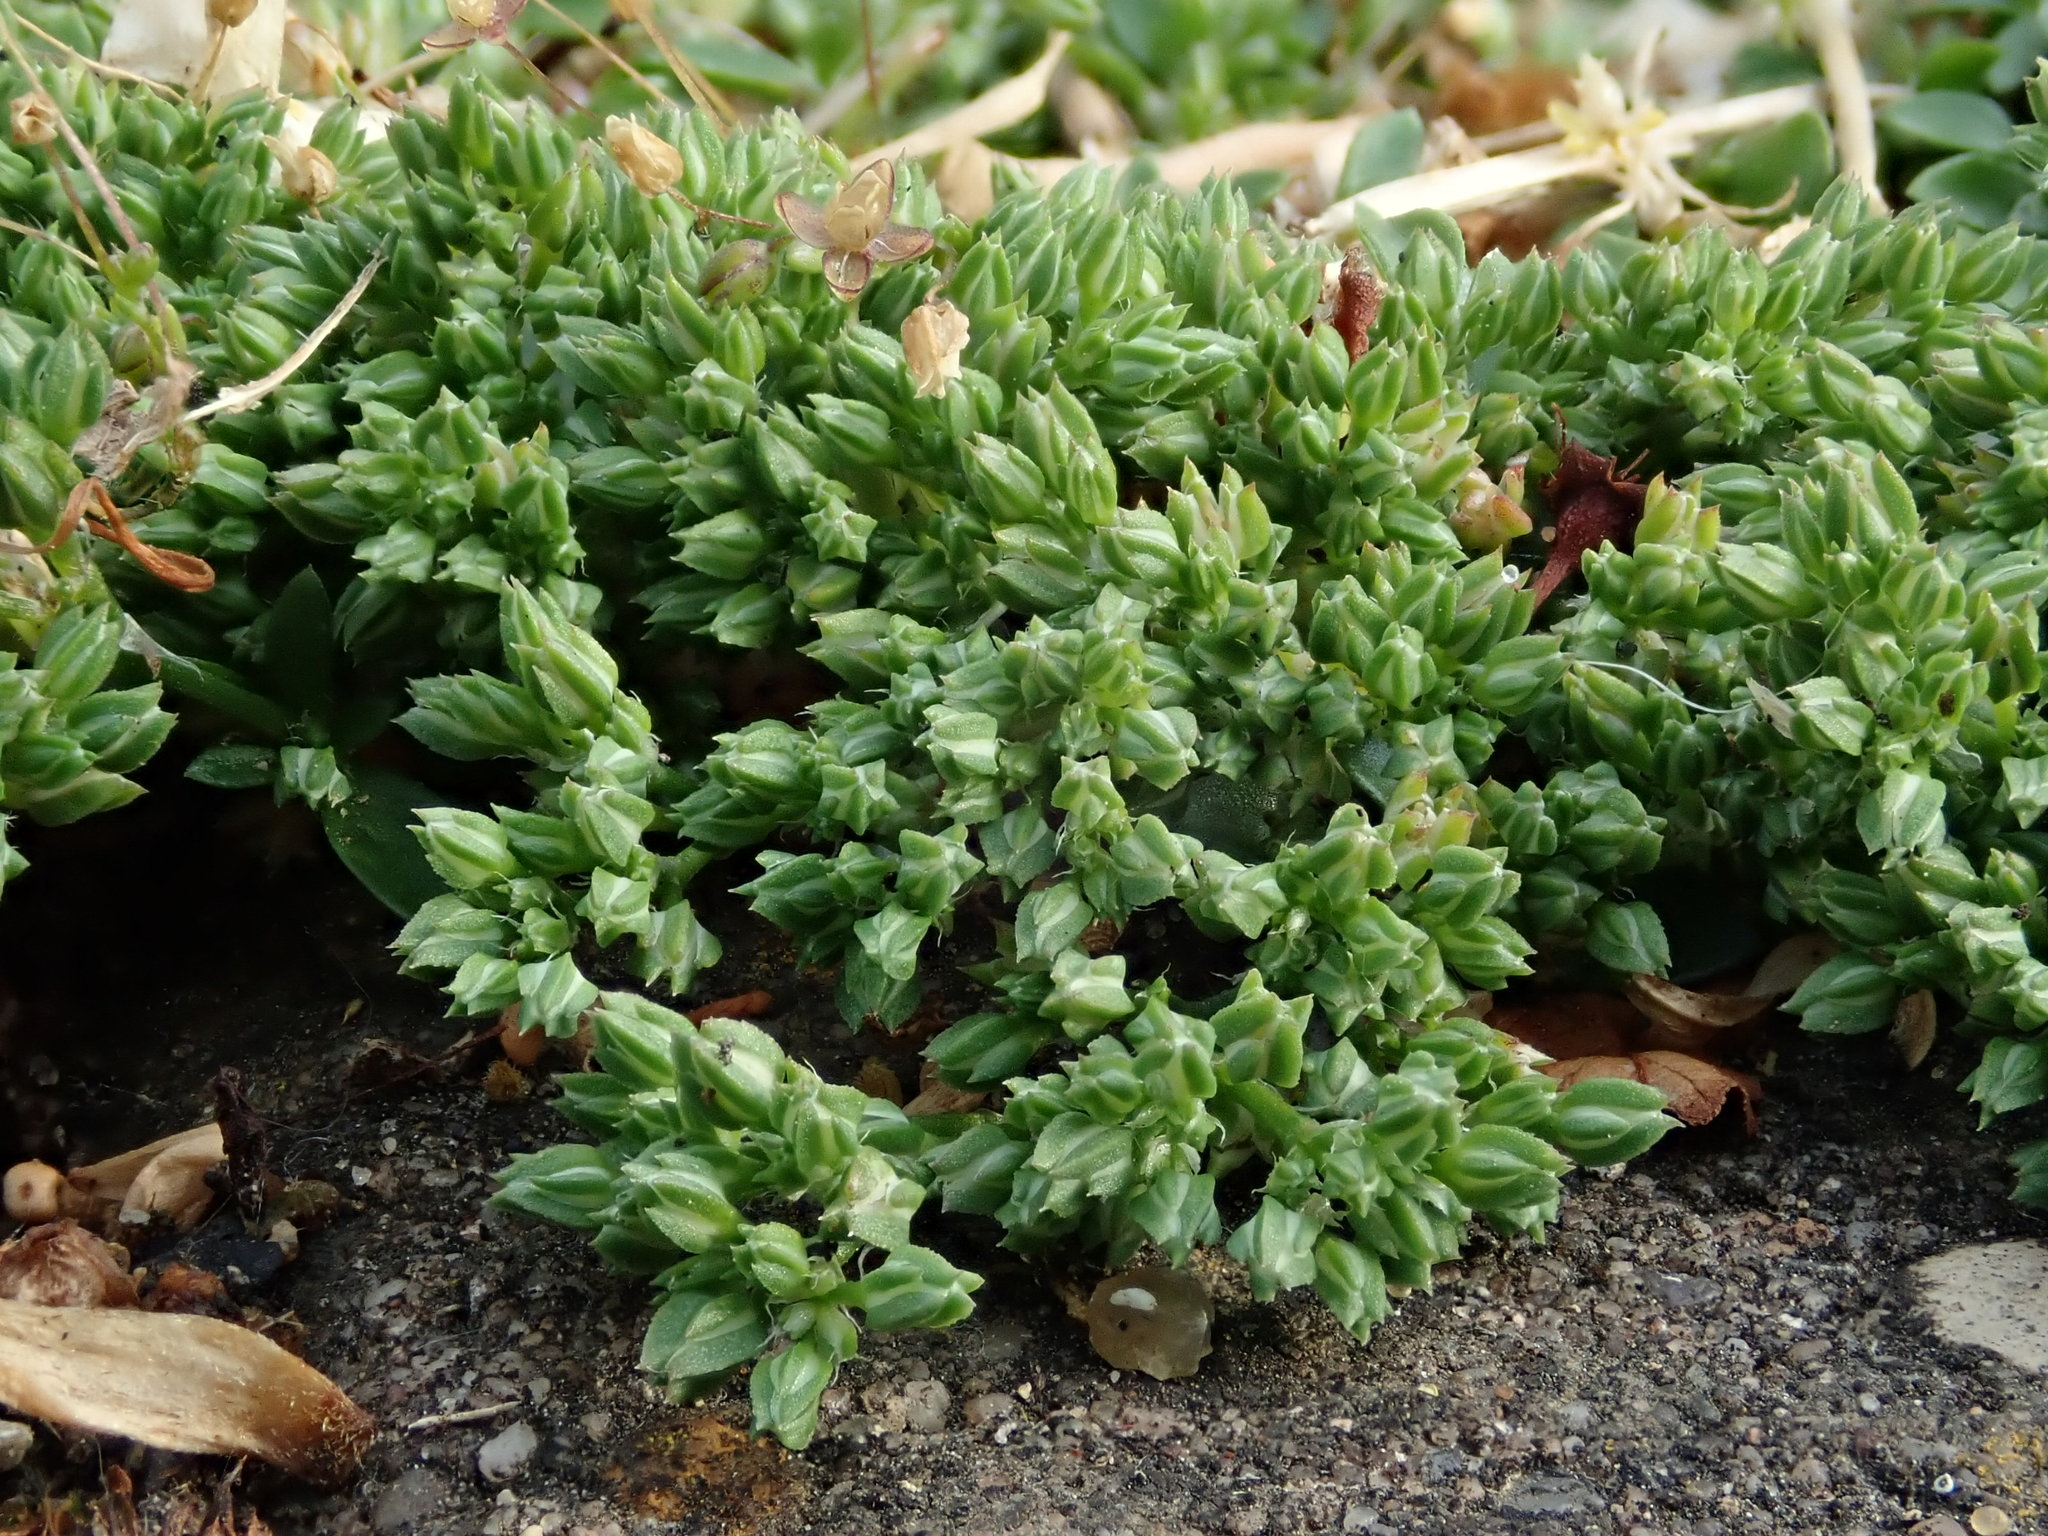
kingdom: Plantae
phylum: Tracheophyta
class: Magnoliopsida
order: Caryophyllales
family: Caryophyllaceae
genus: Polycarpon
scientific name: Polycarpon tetraphyllum
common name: Four-leaved all-seed
